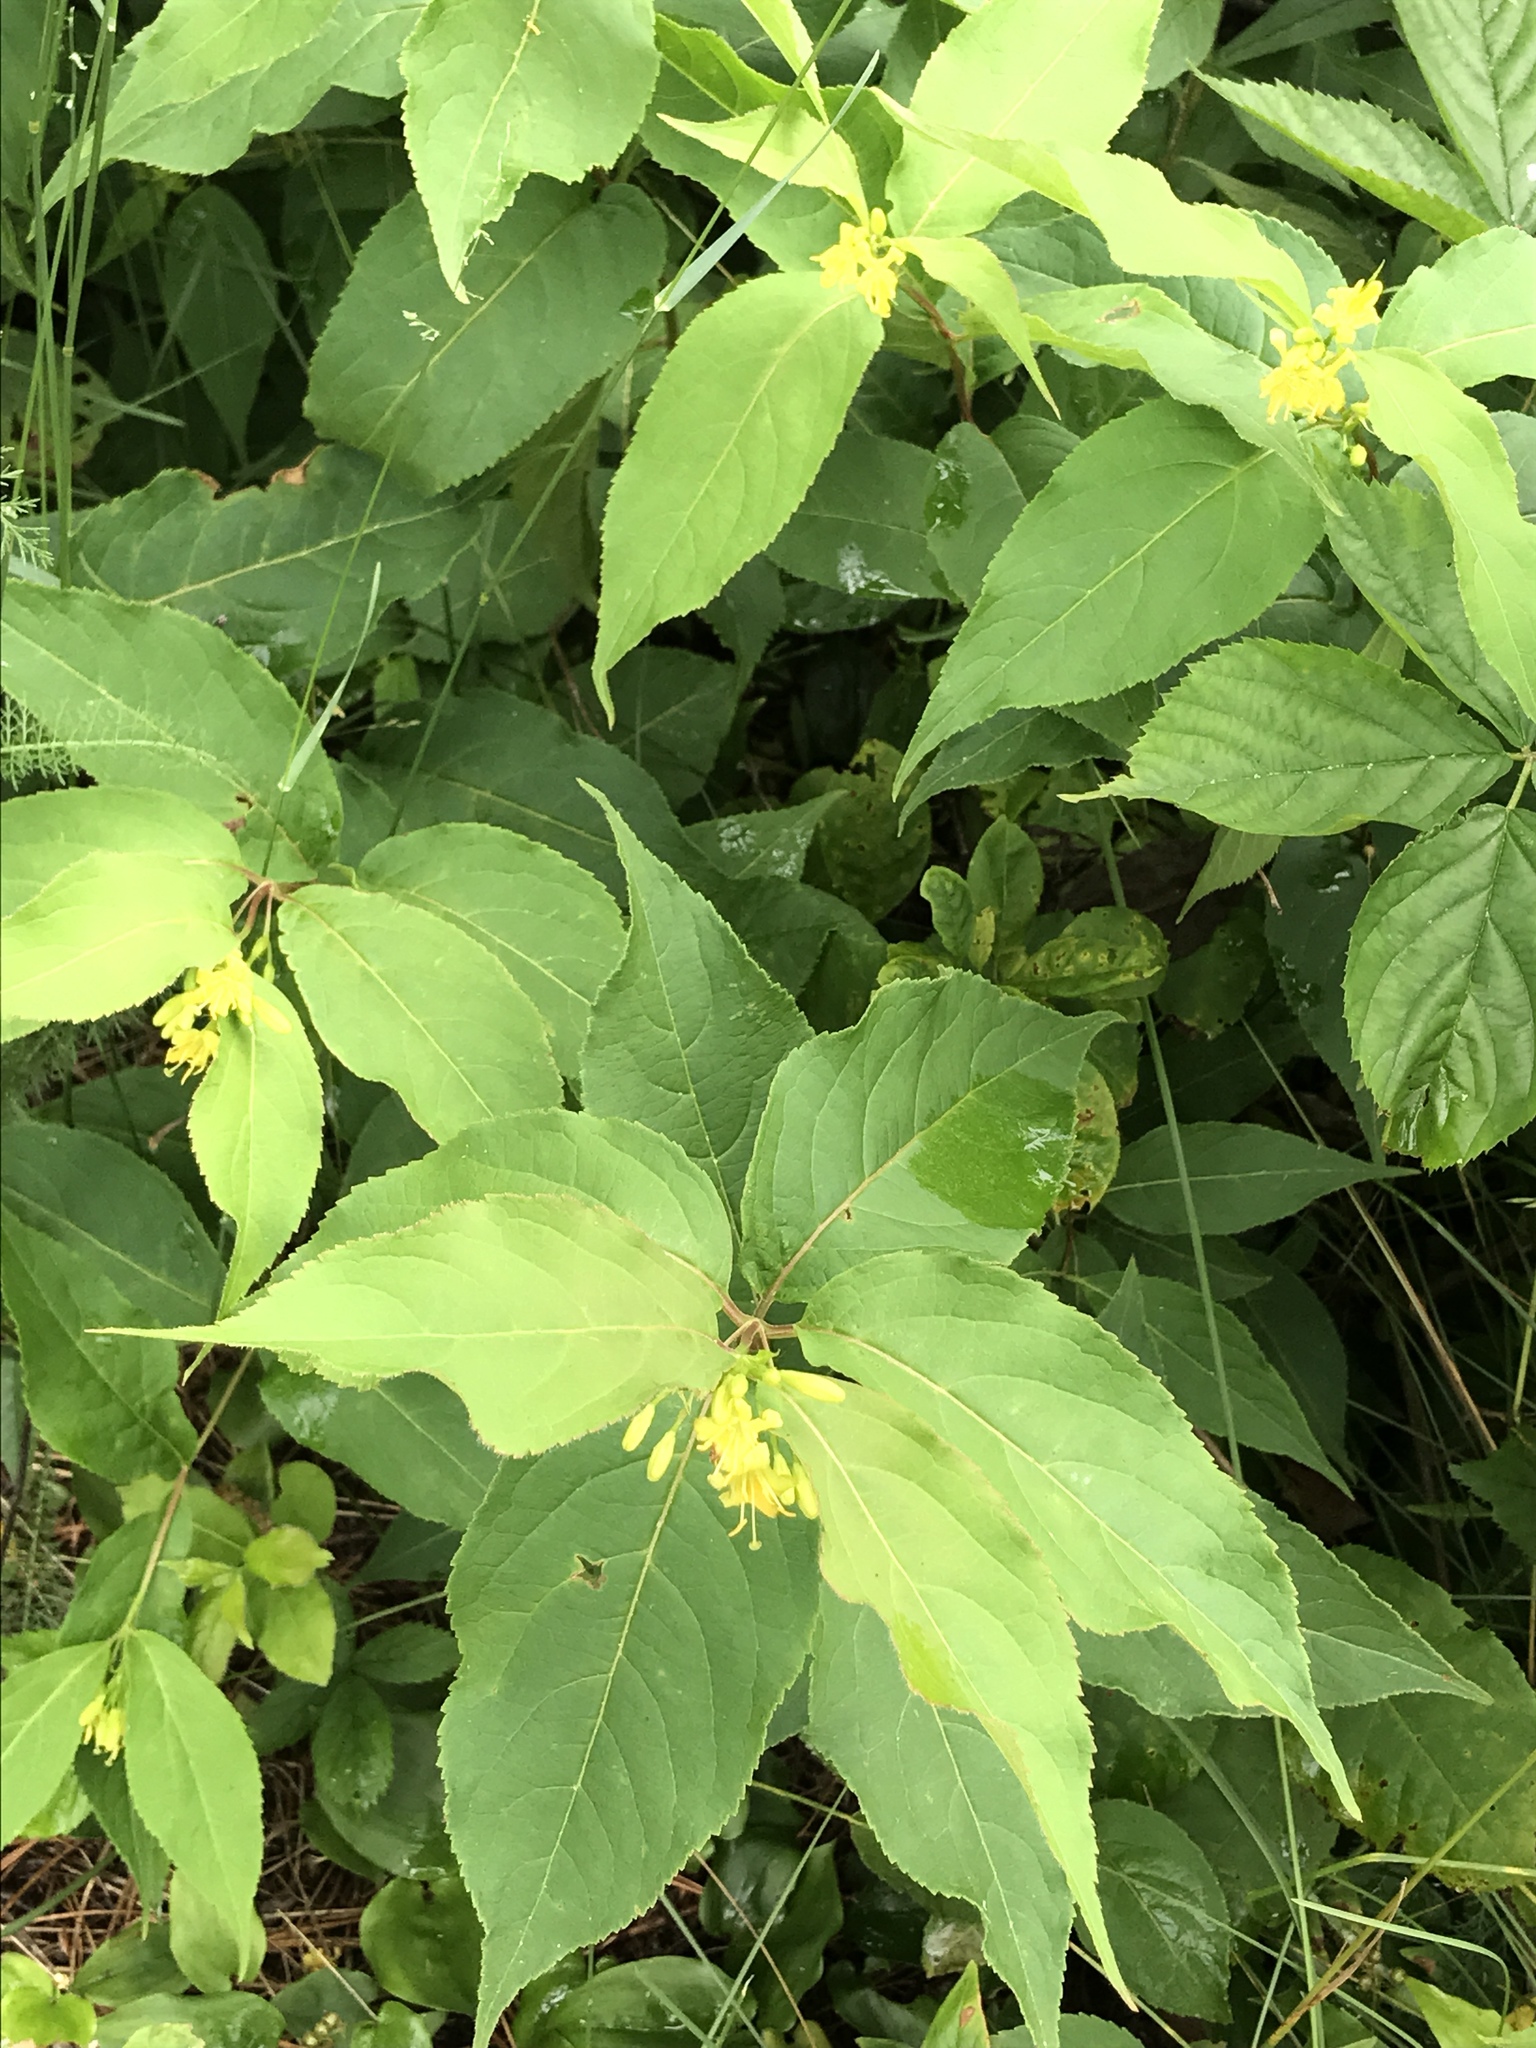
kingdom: Plantae
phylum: Tracheophyta
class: Magnoliopsida
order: Dipsacales
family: Caprifoliaceae
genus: Diervilla
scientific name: Diervilla lonicera
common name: Bush-honeysuckle
